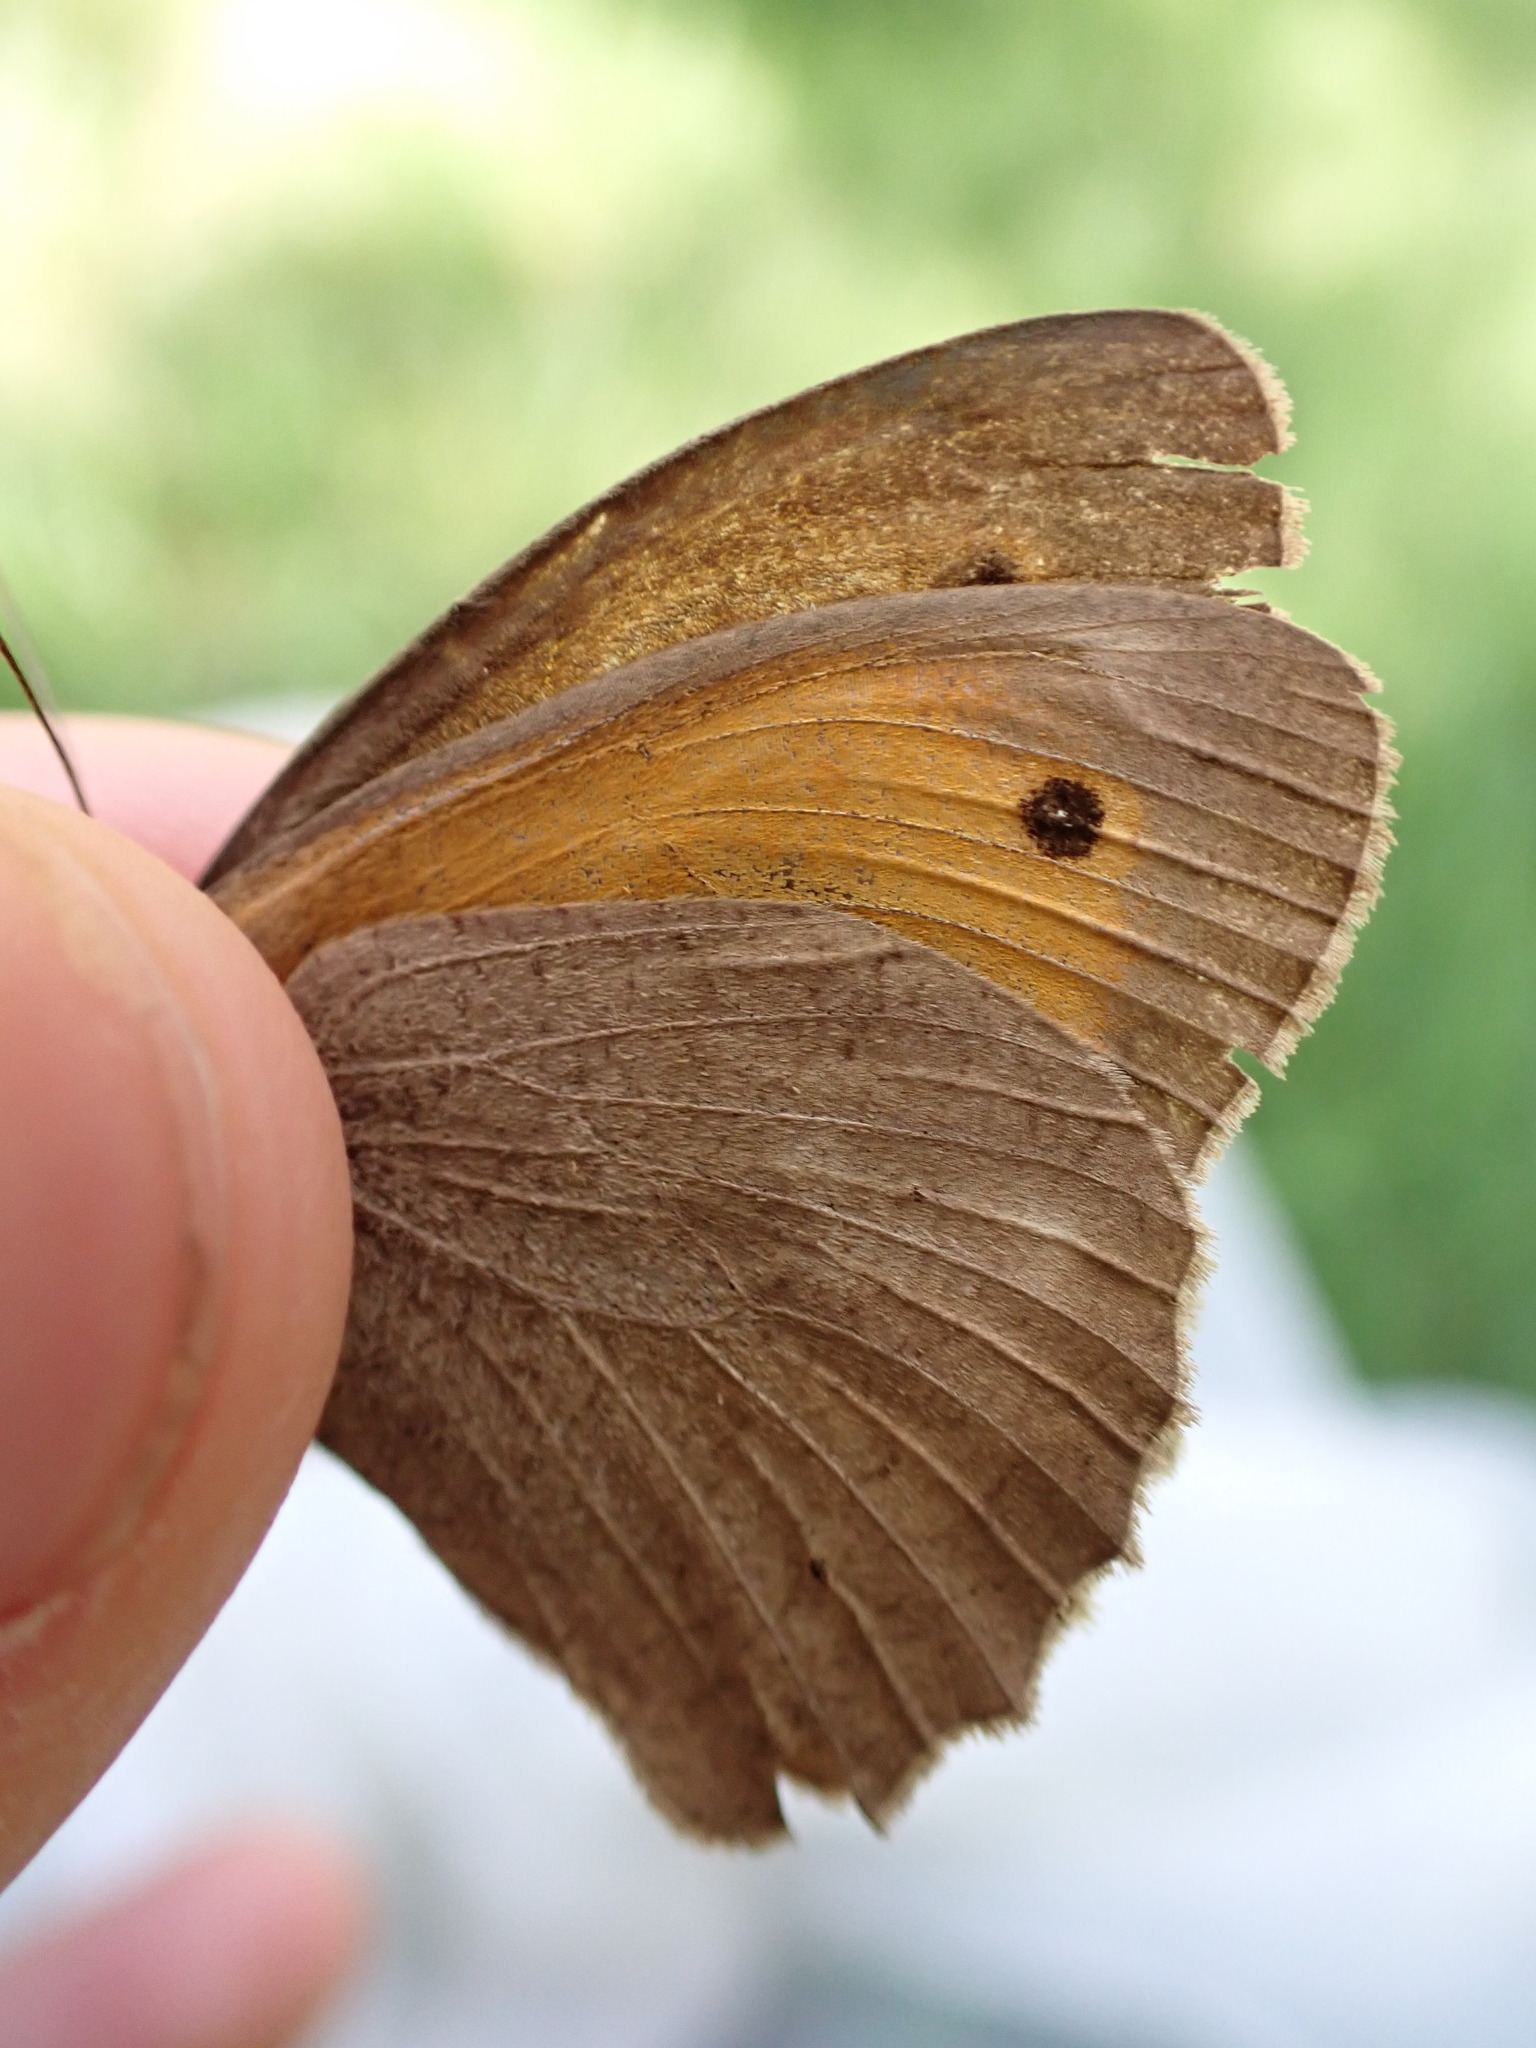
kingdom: Animalia
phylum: Arthropoda
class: Insecta
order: Lepidoptera
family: Nymphalidae
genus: Maniola
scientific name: Maniola jurtina
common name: Meadow brown
